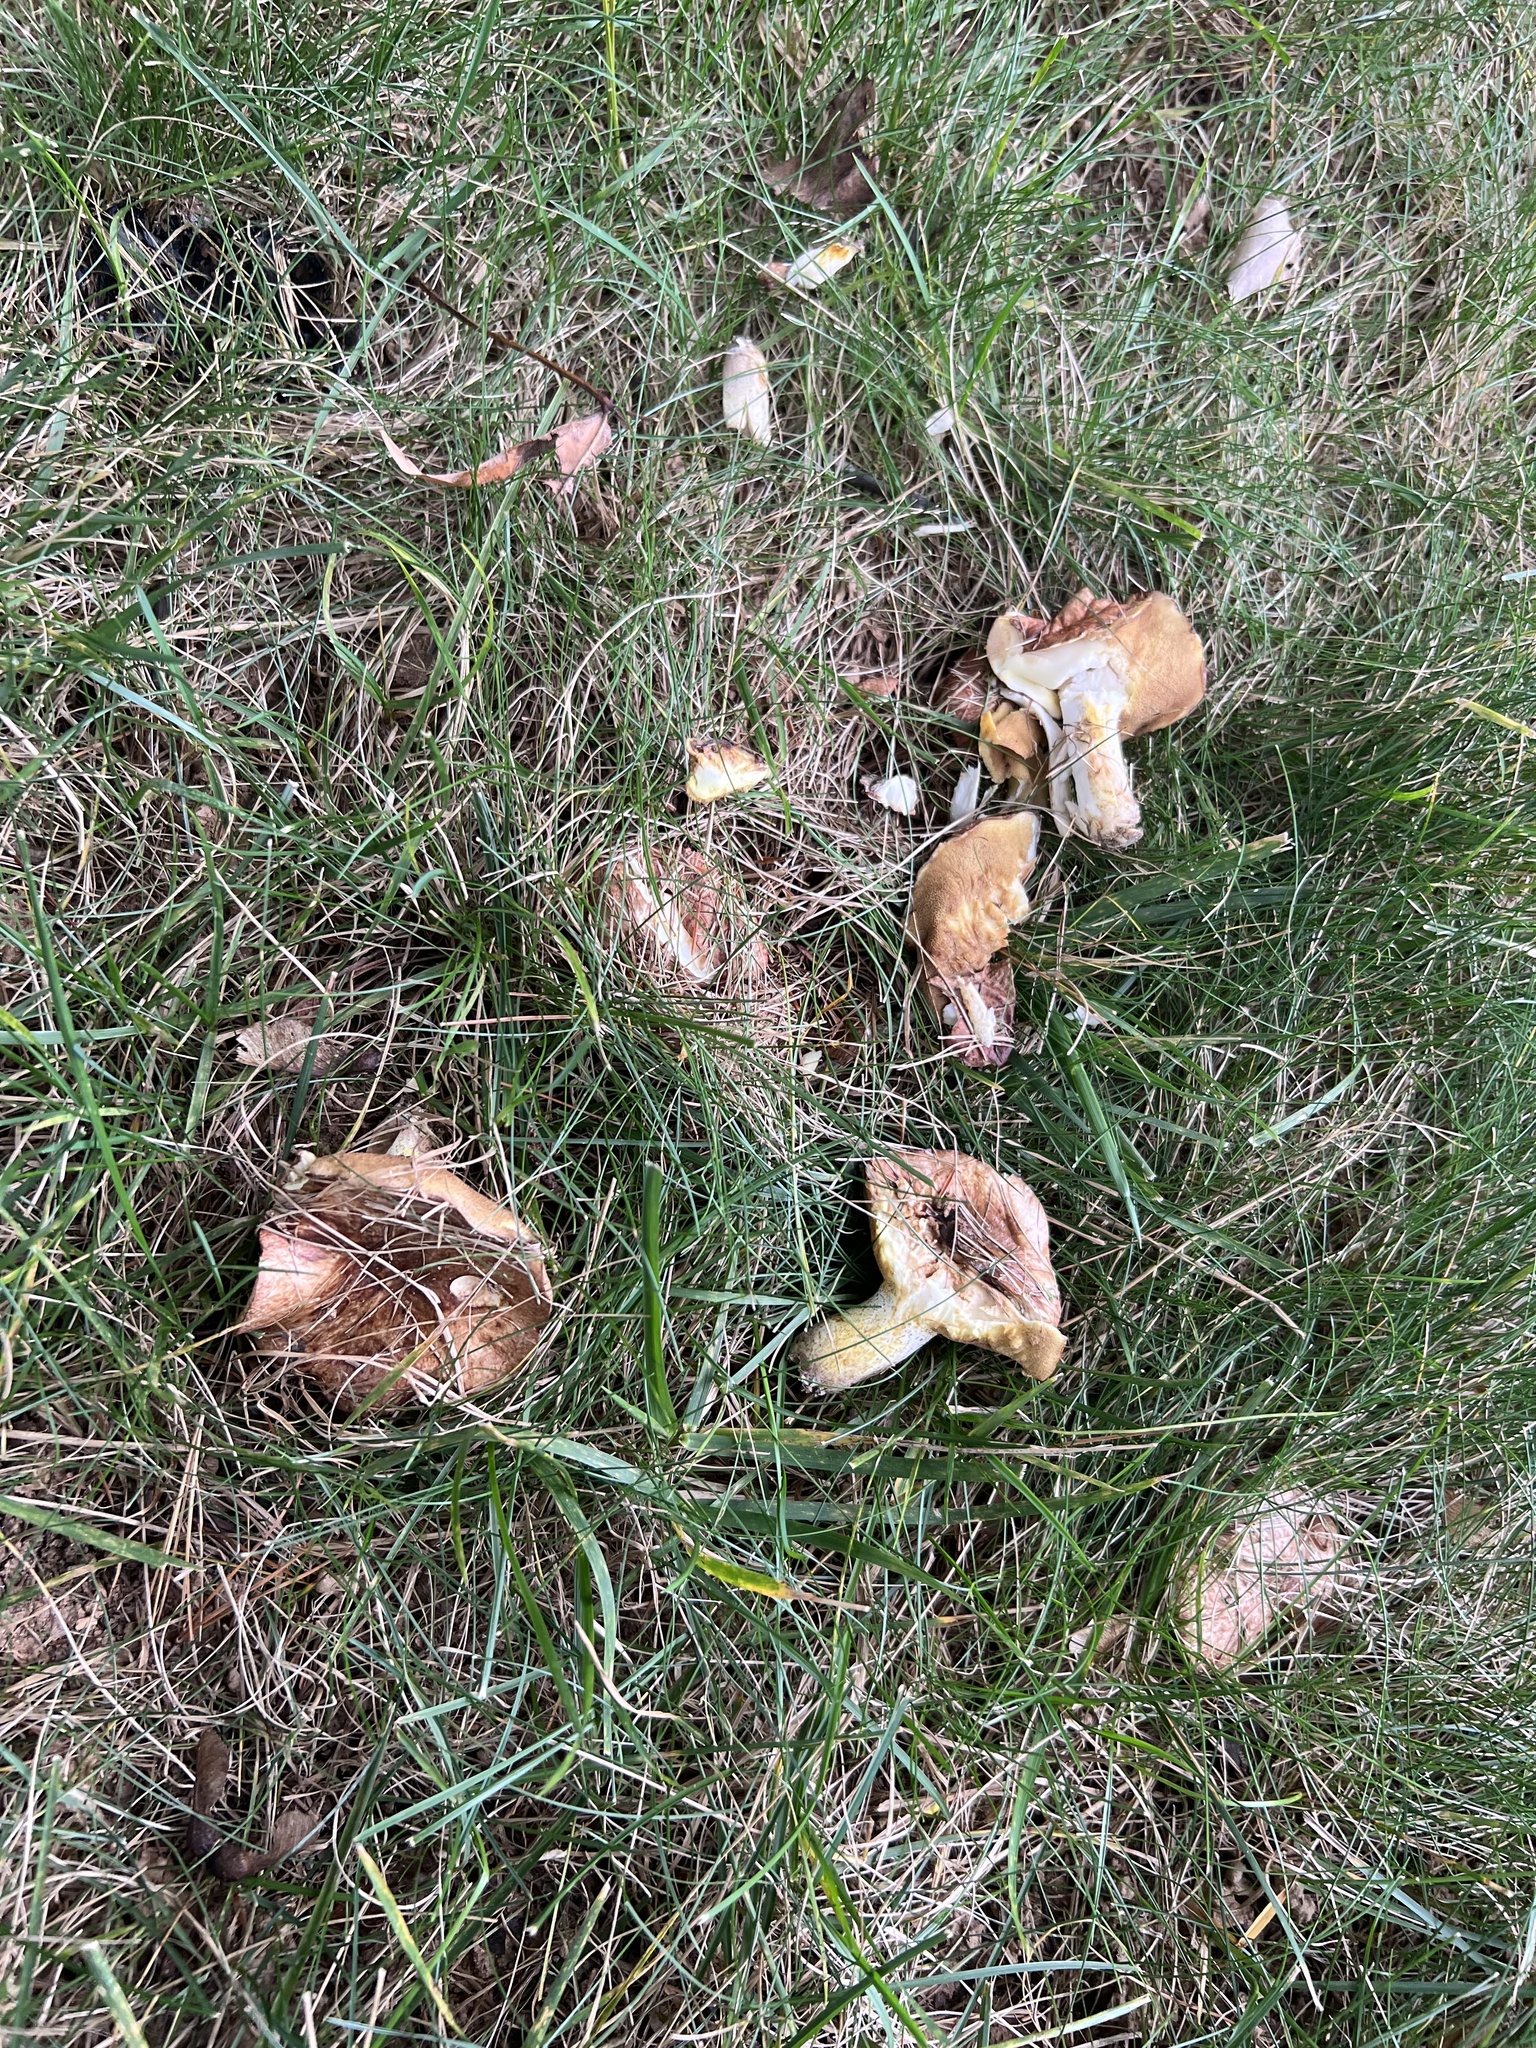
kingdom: Fungi
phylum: Basidiomycota
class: Agaricomycetes
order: Boletales
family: Suillaceae
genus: Fuscoboletinus
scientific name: Fuscoboletinus weaverae
